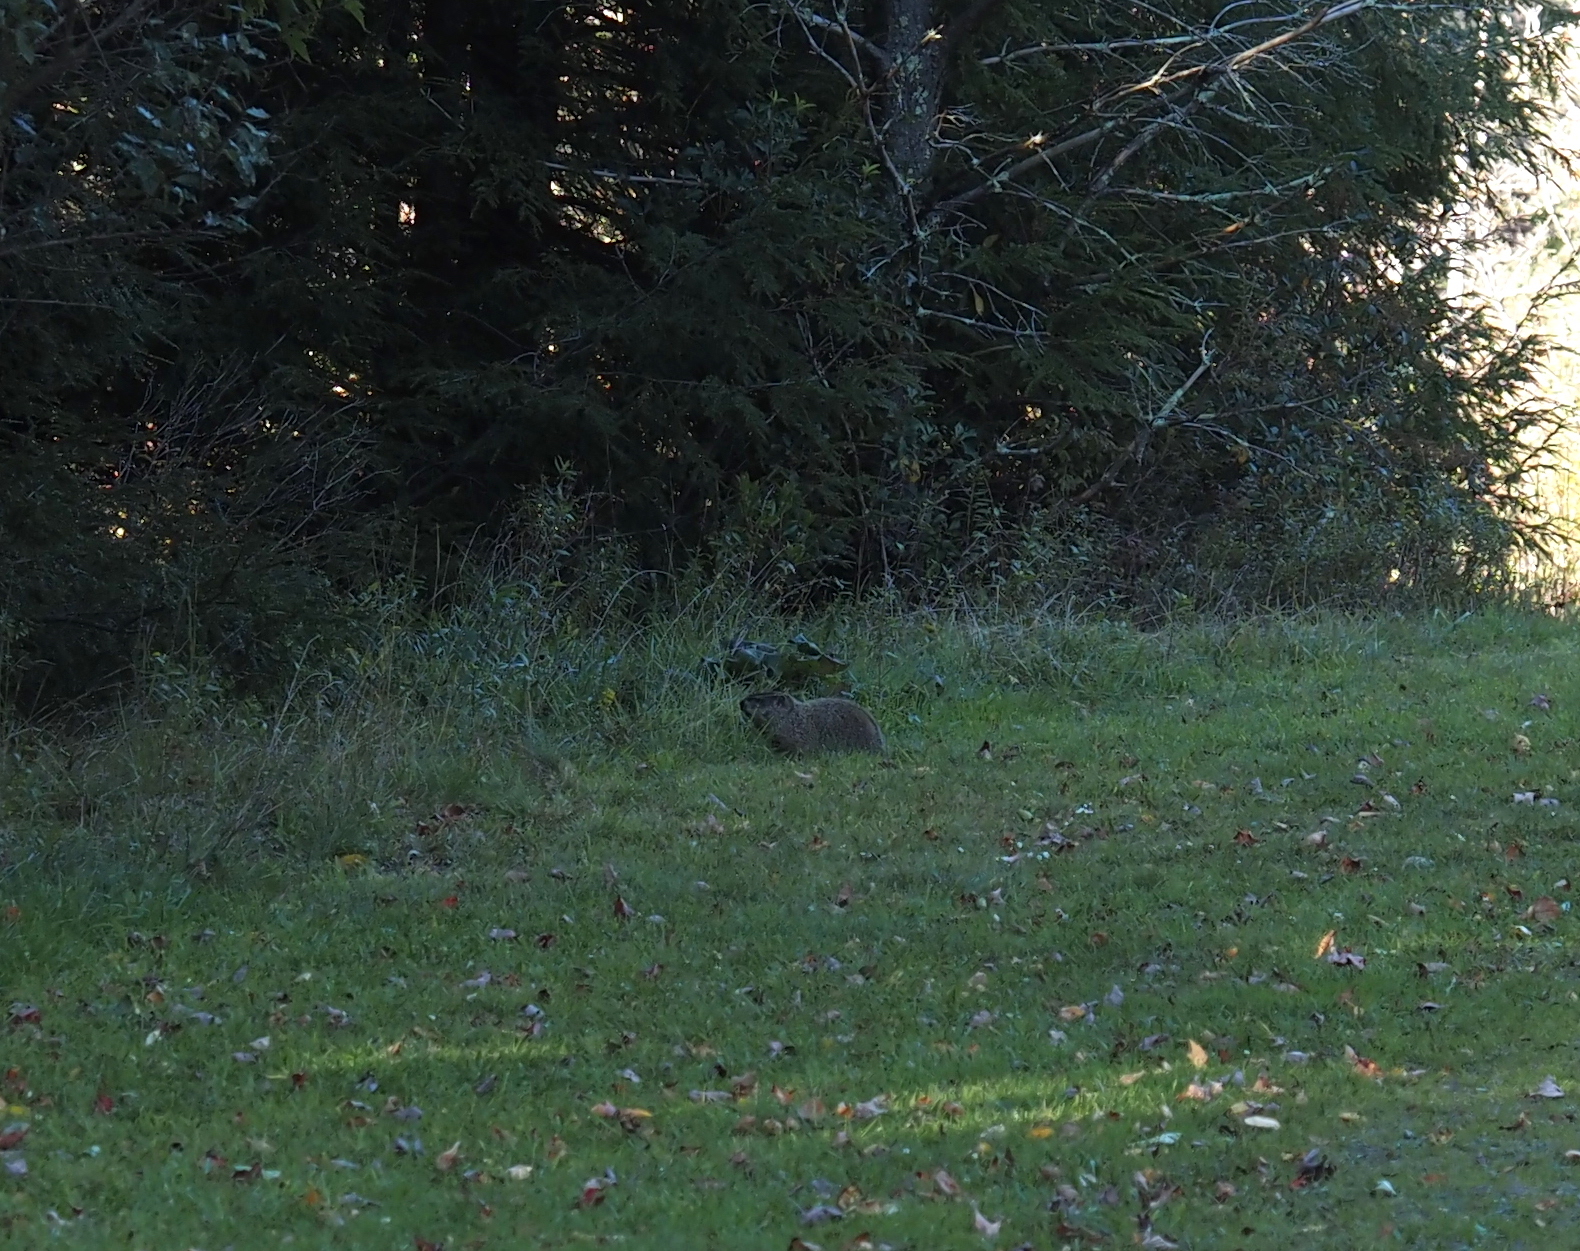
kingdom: Animalia
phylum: Chordata
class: Mammalia
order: Rodentia
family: Sciuridae
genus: Marmota
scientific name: Marmota monax
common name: Groundhog
